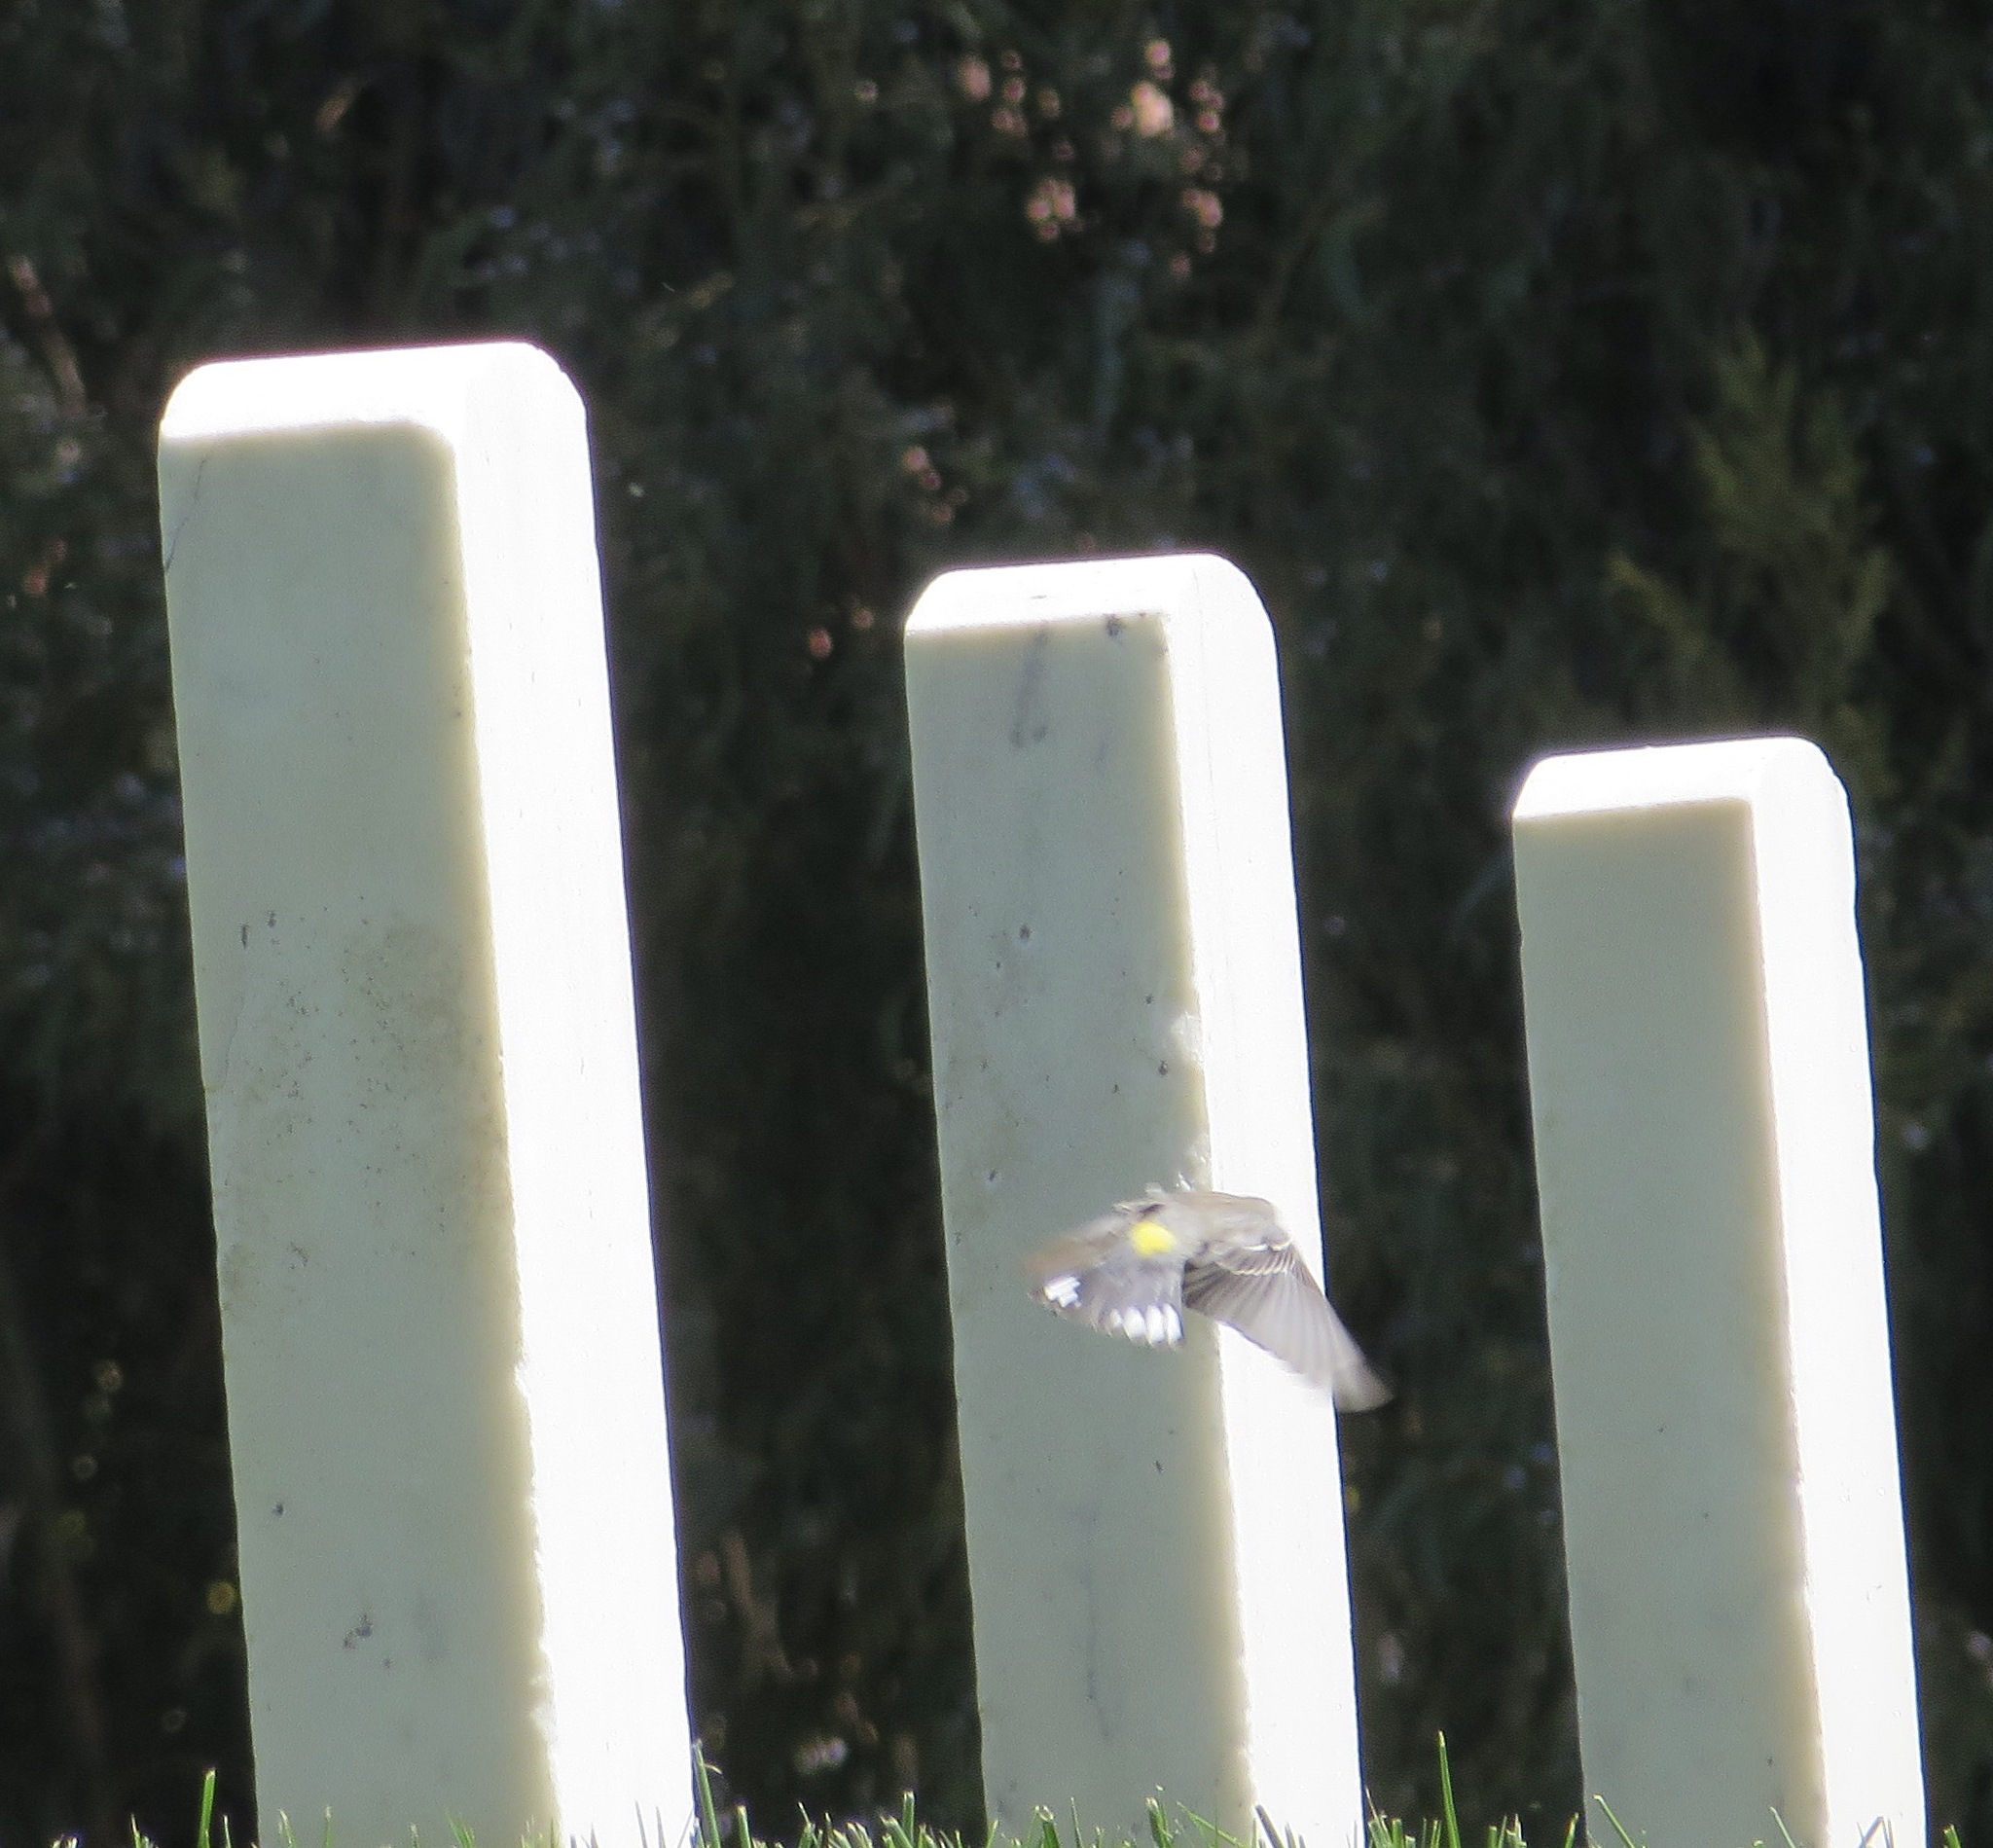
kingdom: Animalia
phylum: Chordata
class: Aves
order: Passeriformes
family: Parulidae
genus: Setophaga
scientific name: Setophaga coronata
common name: Myrtle warbler
